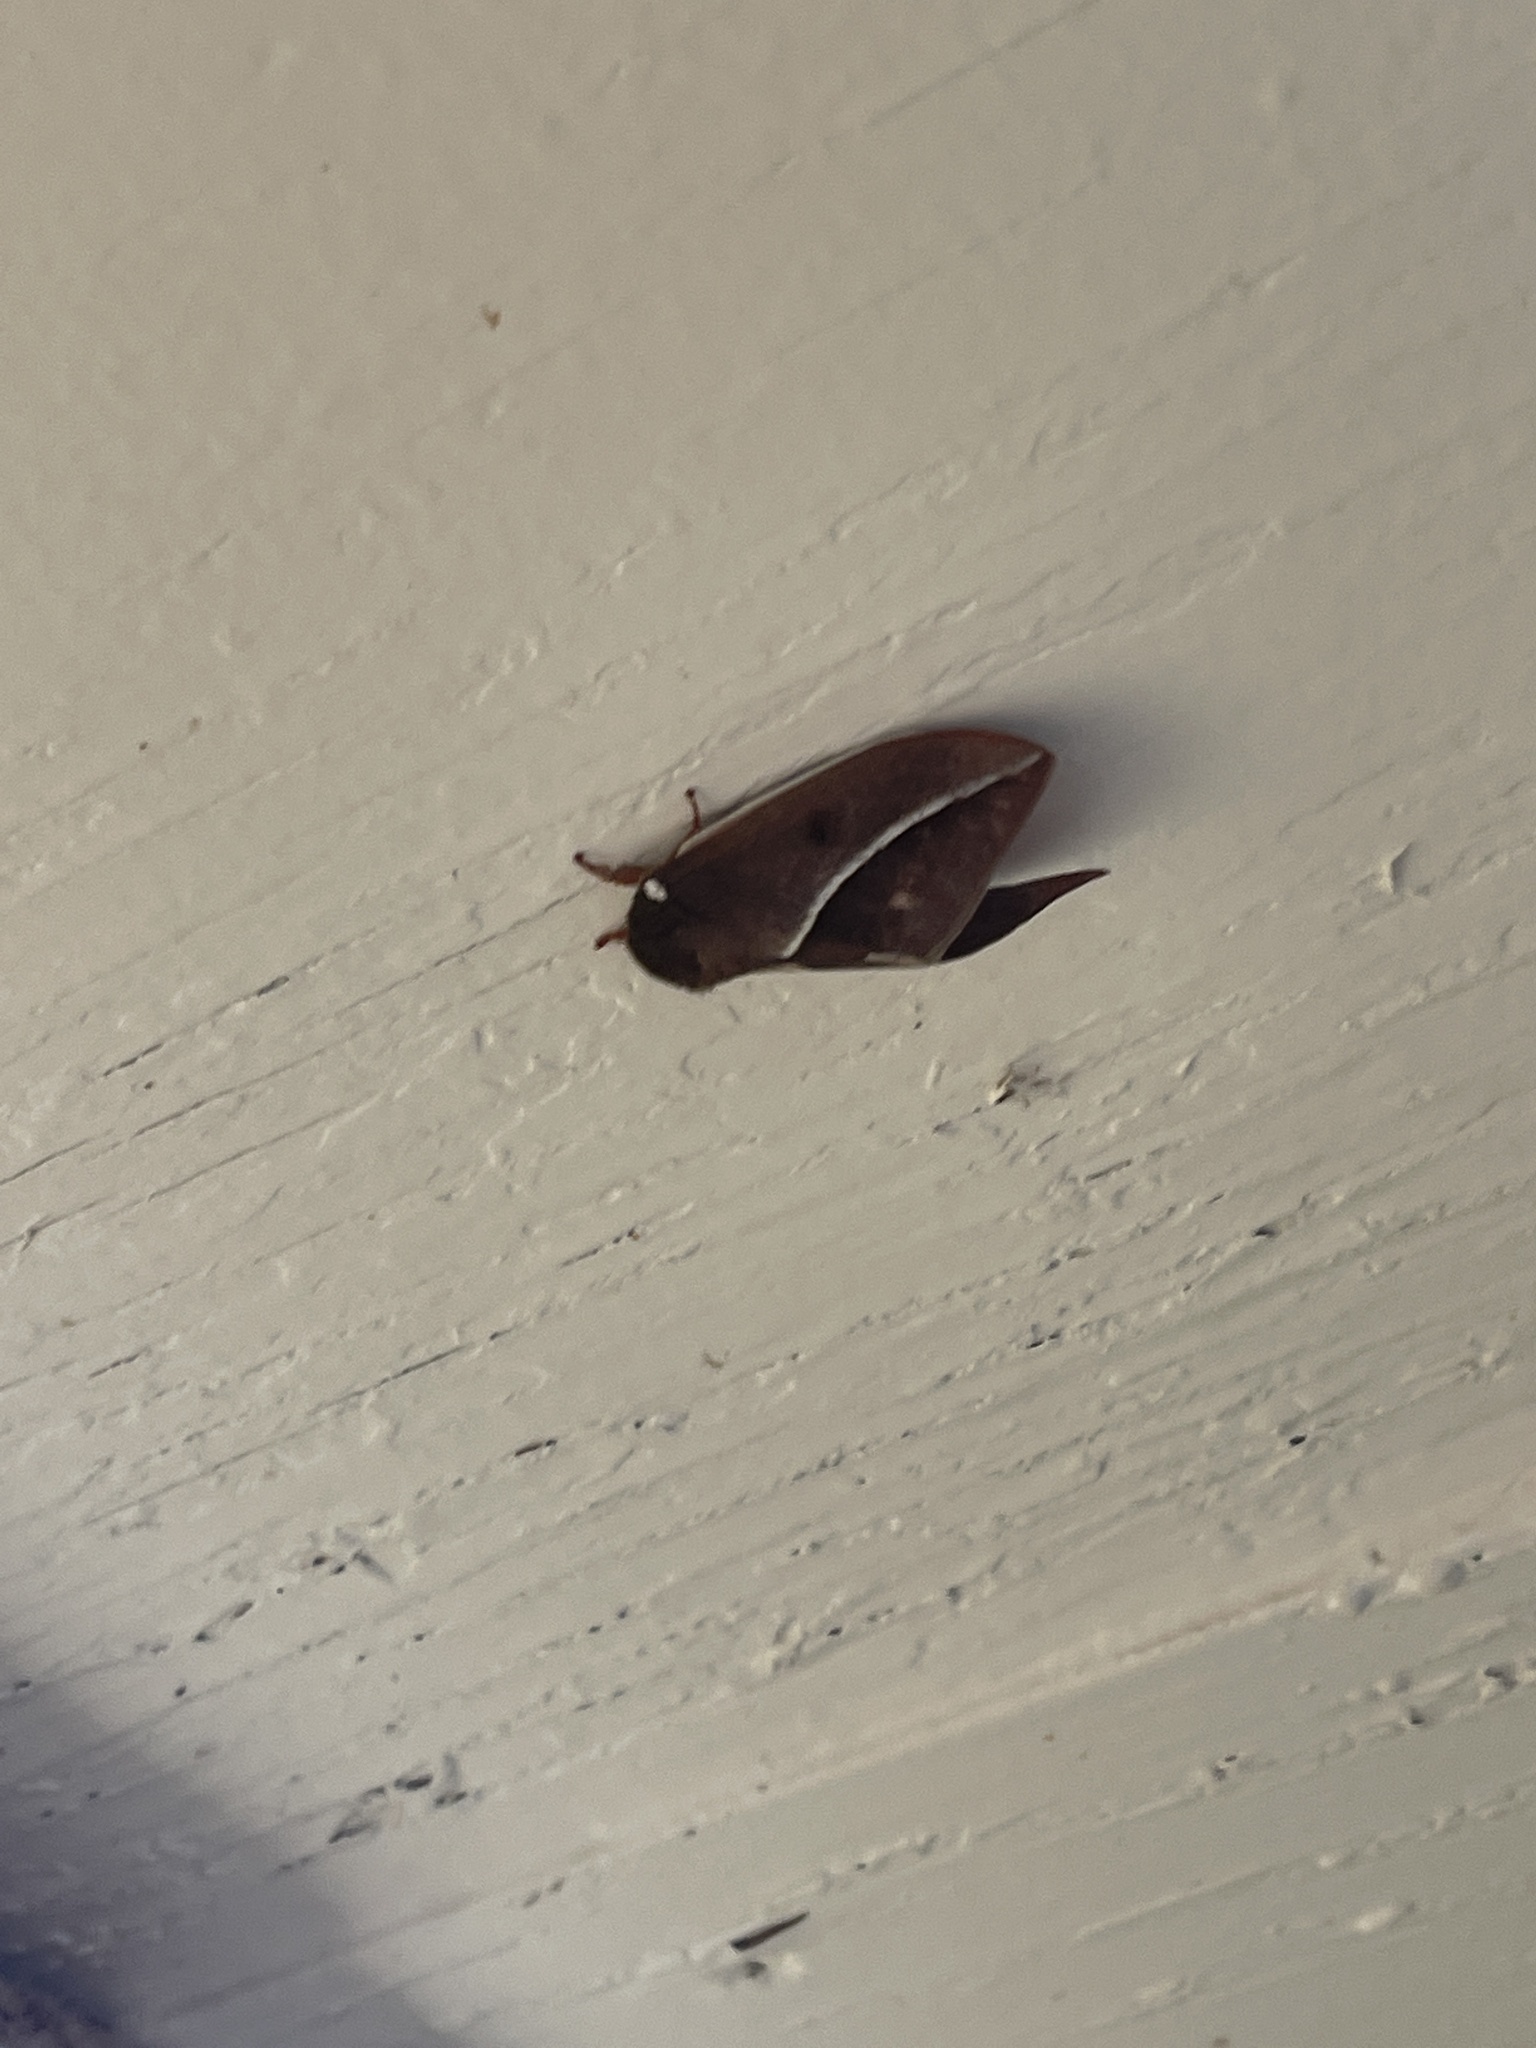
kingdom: Animalia
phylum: Arthropoda
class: Insecta
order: Lepidoptera
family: Saturniidae
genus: Automeris
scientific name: Automeris zephyria
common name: Zephyr eyed silkmoth
